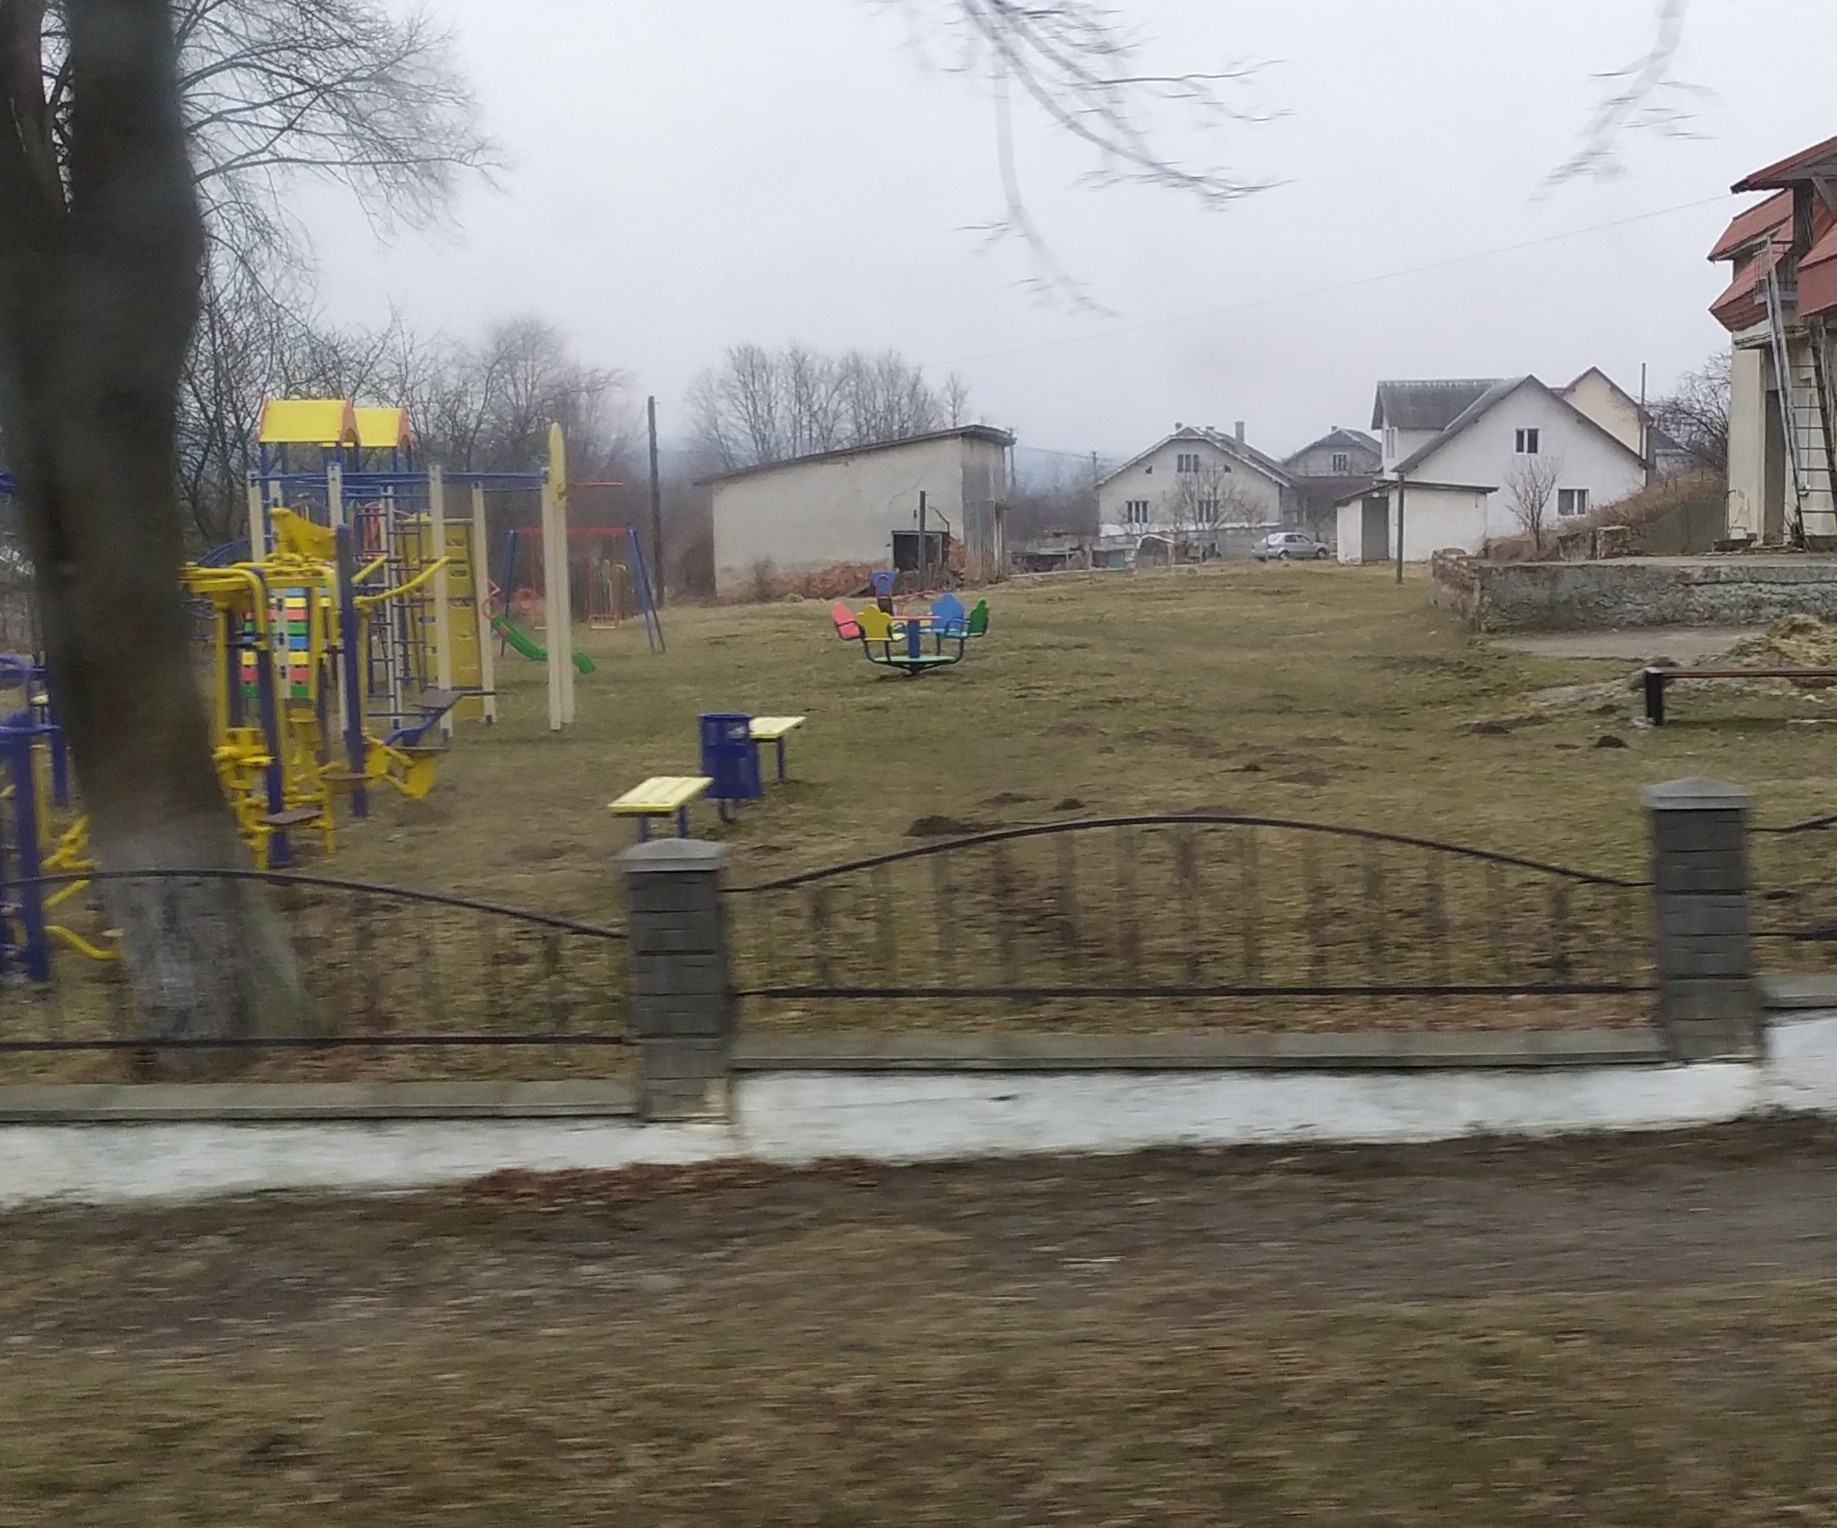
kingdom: Animalia
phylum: Chordata
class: Mammalia
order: Soricomorpha
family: Talpidae
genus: Talpa
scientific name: Talpa europaea
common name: European mole
